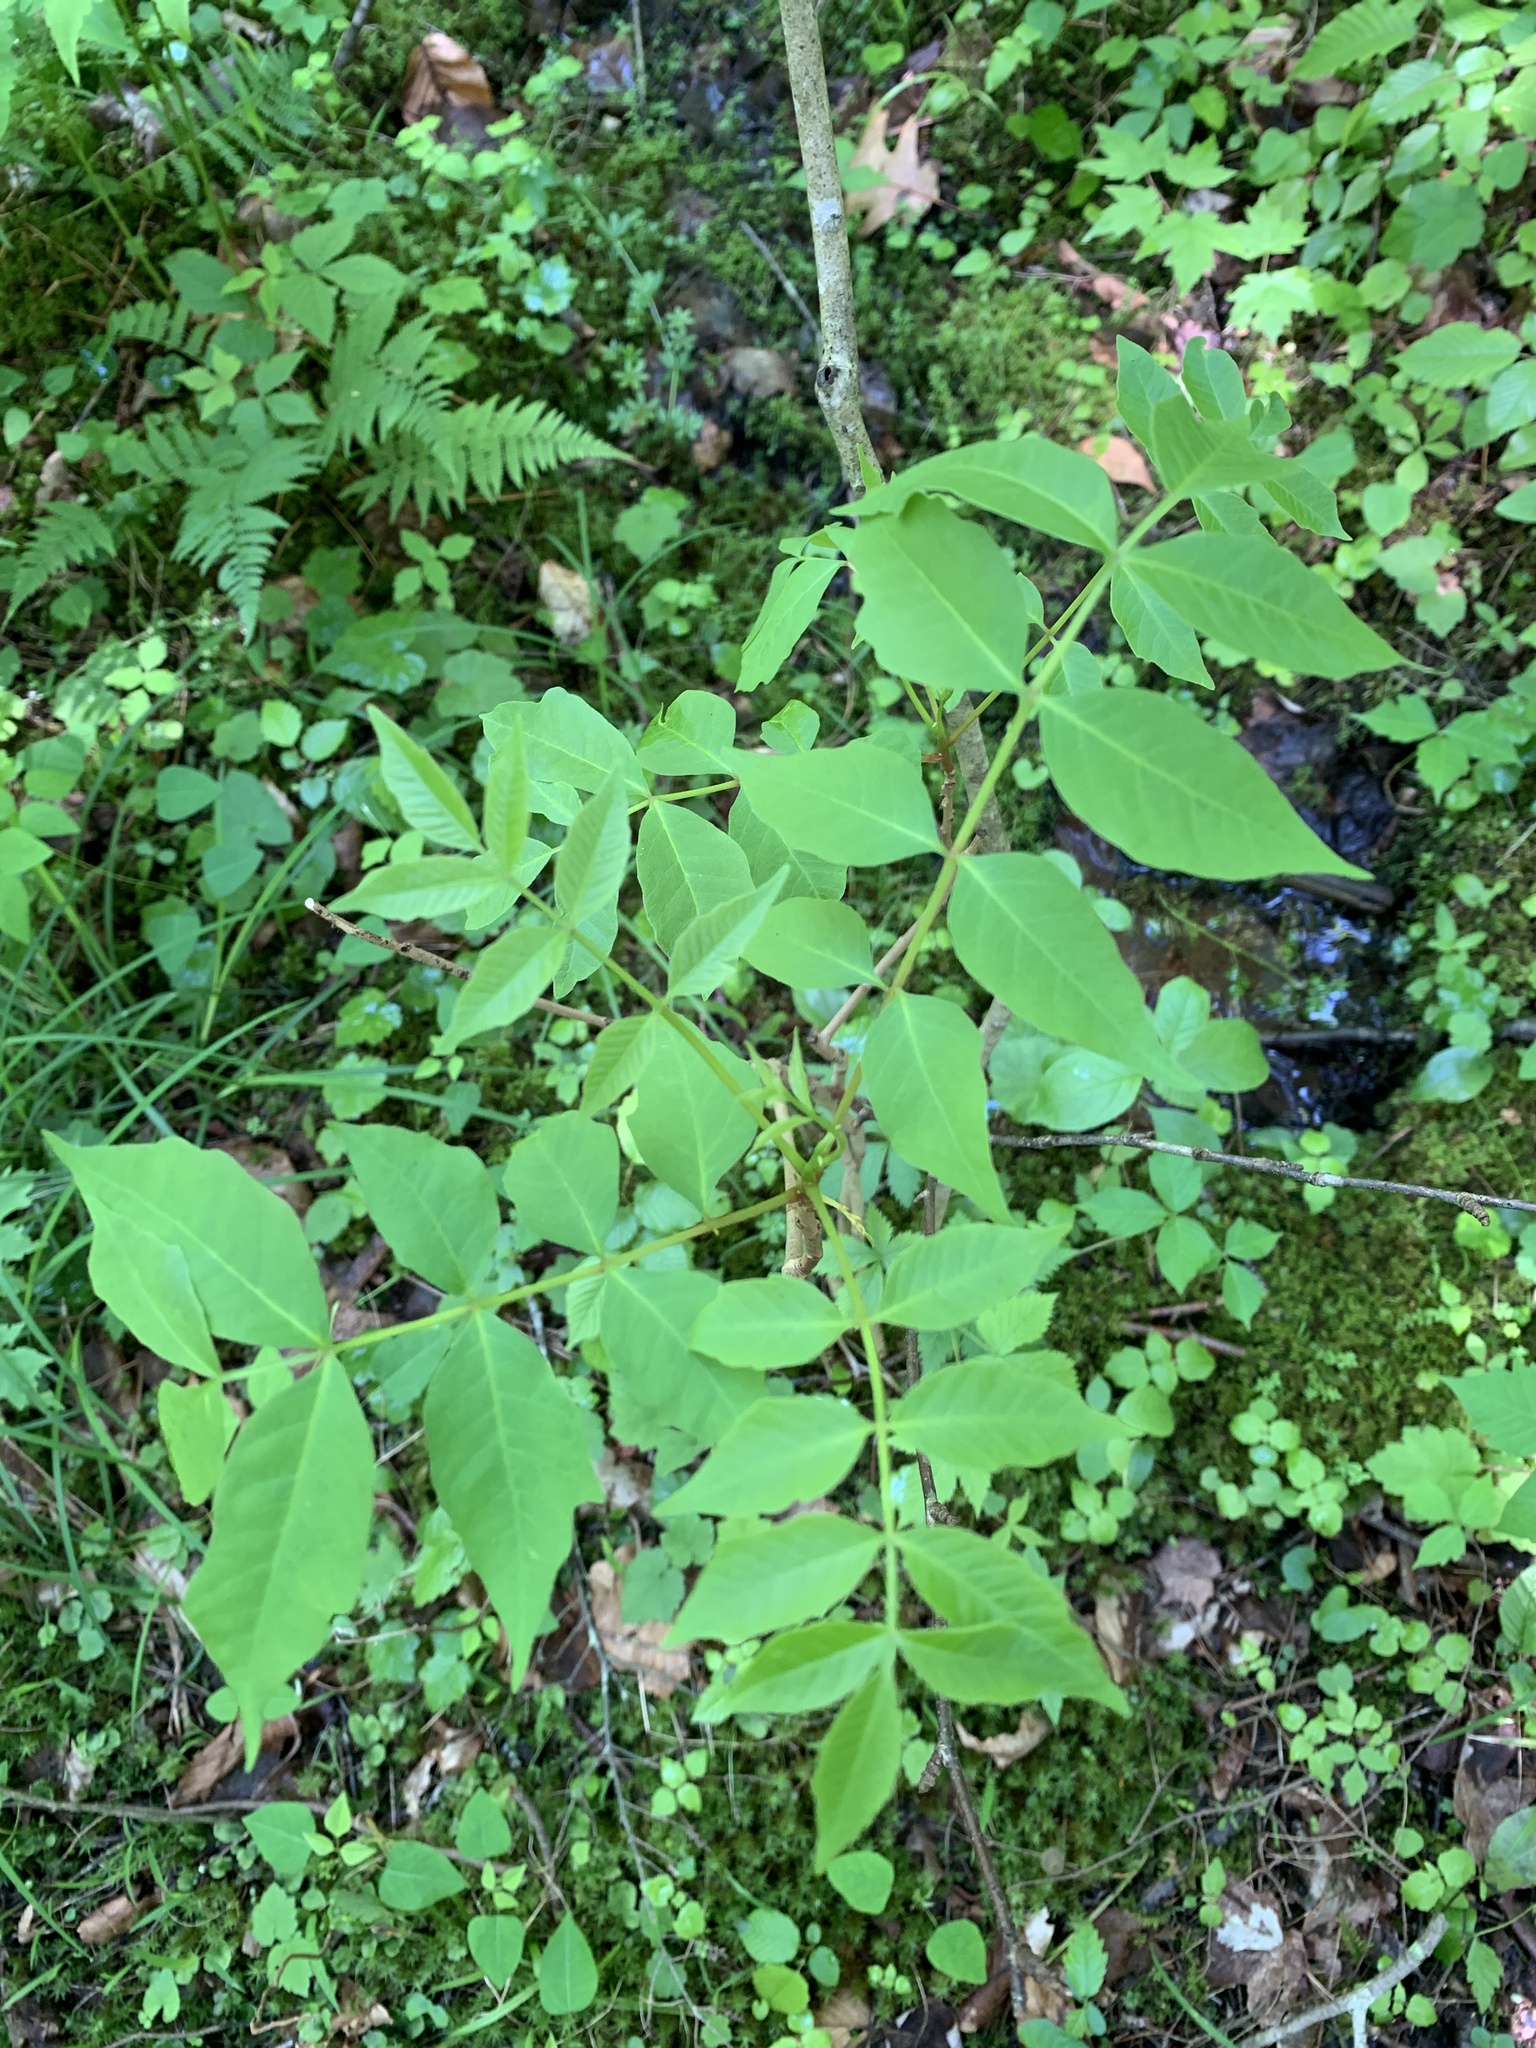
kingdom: Plantae
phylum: Tracheophyta
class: Magnoliopsida
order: Sapindales
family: Anacardiaceae
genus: Toxicodendron
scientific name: Toxicodendron vernix
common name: Poison sumac
